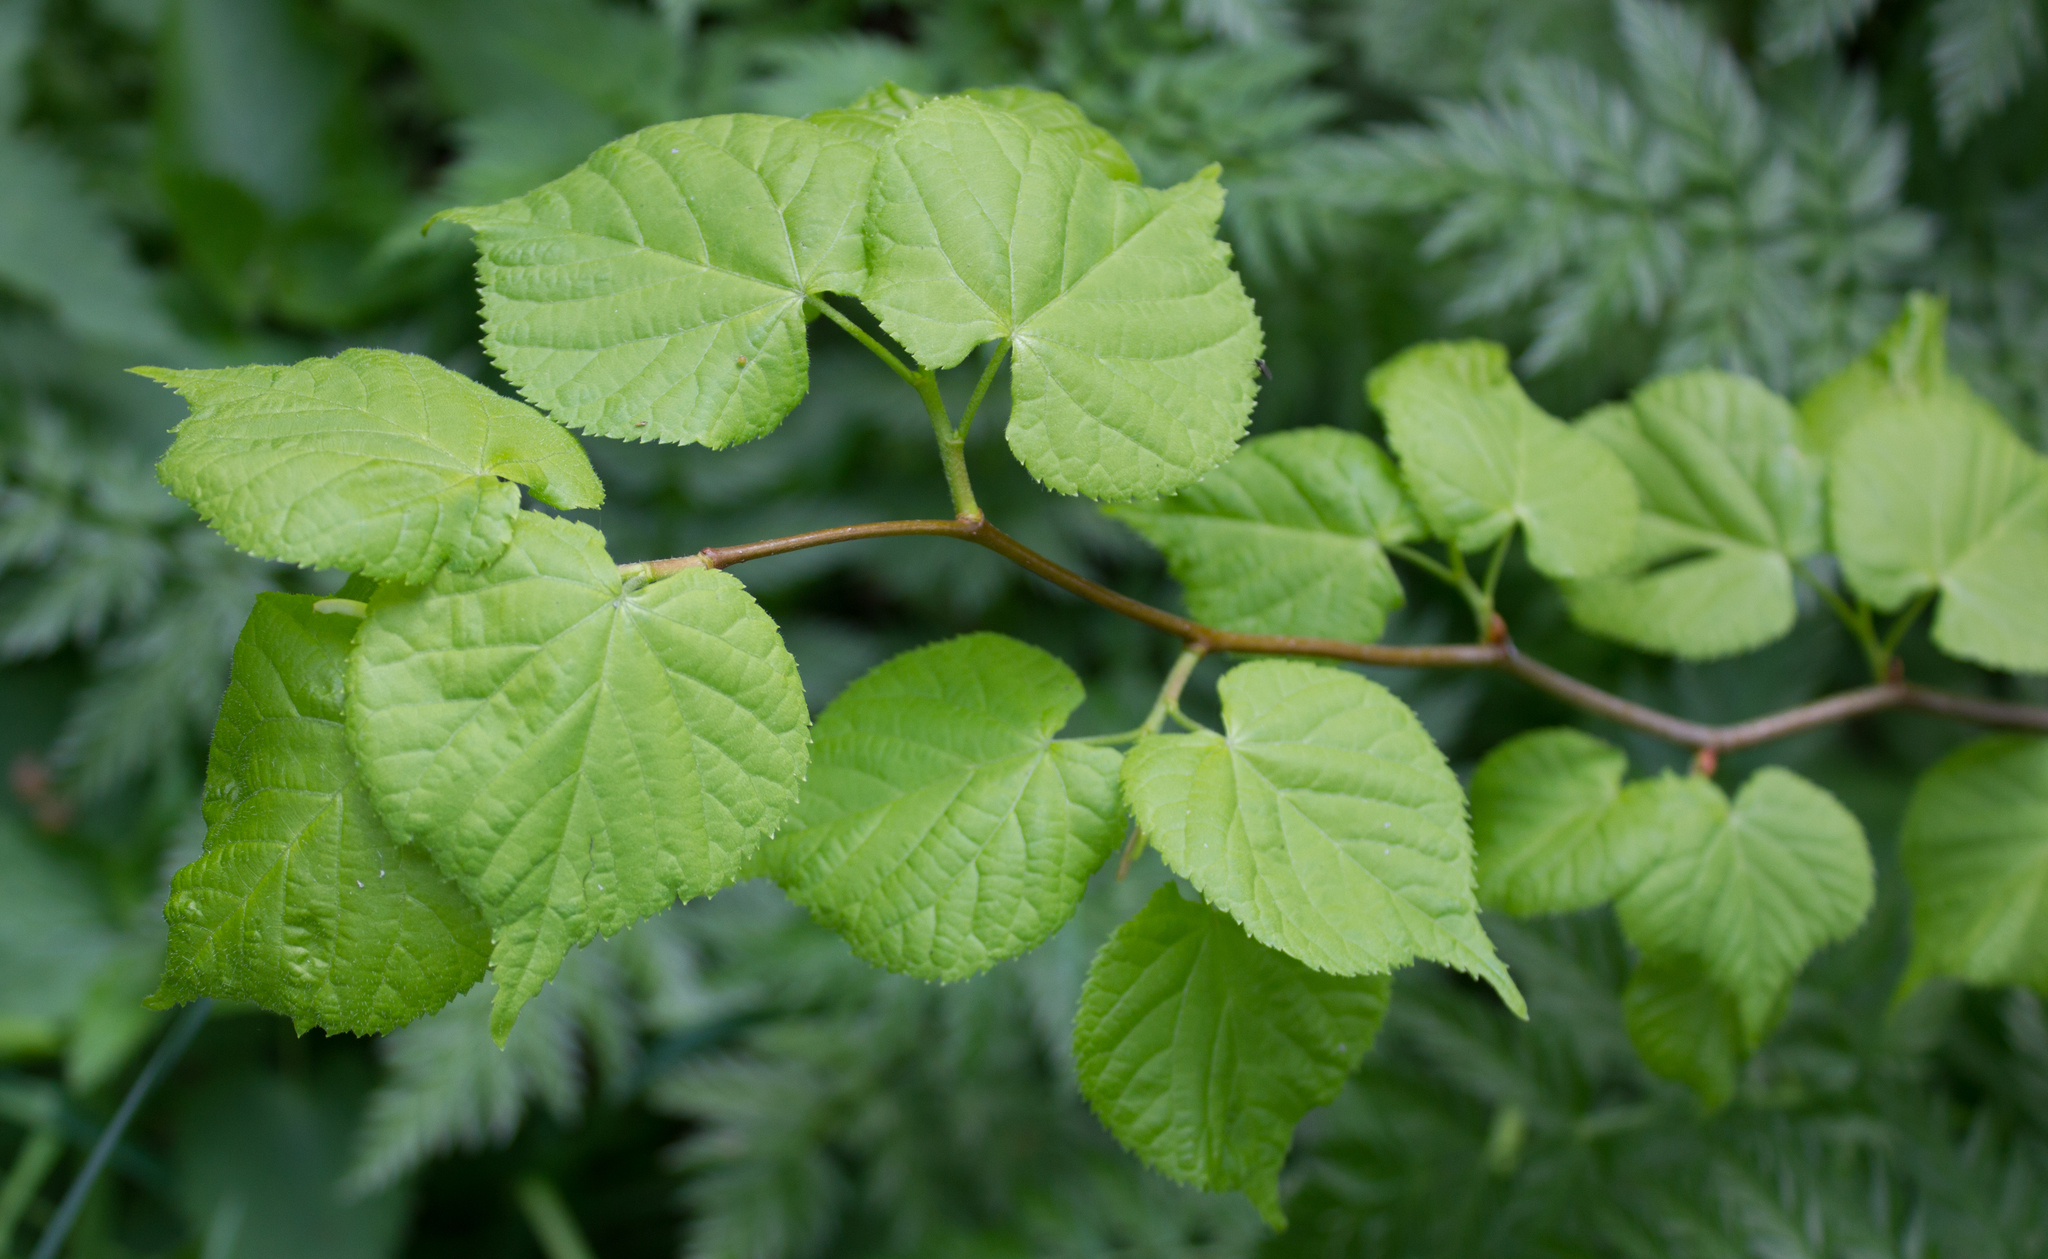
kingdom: Plantae
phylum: Tracheophyta
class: Magnoliopsida
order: Malvales
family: Malvaceae
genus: Tilia
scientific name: Tilia cordata
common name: Small-leaved lime
